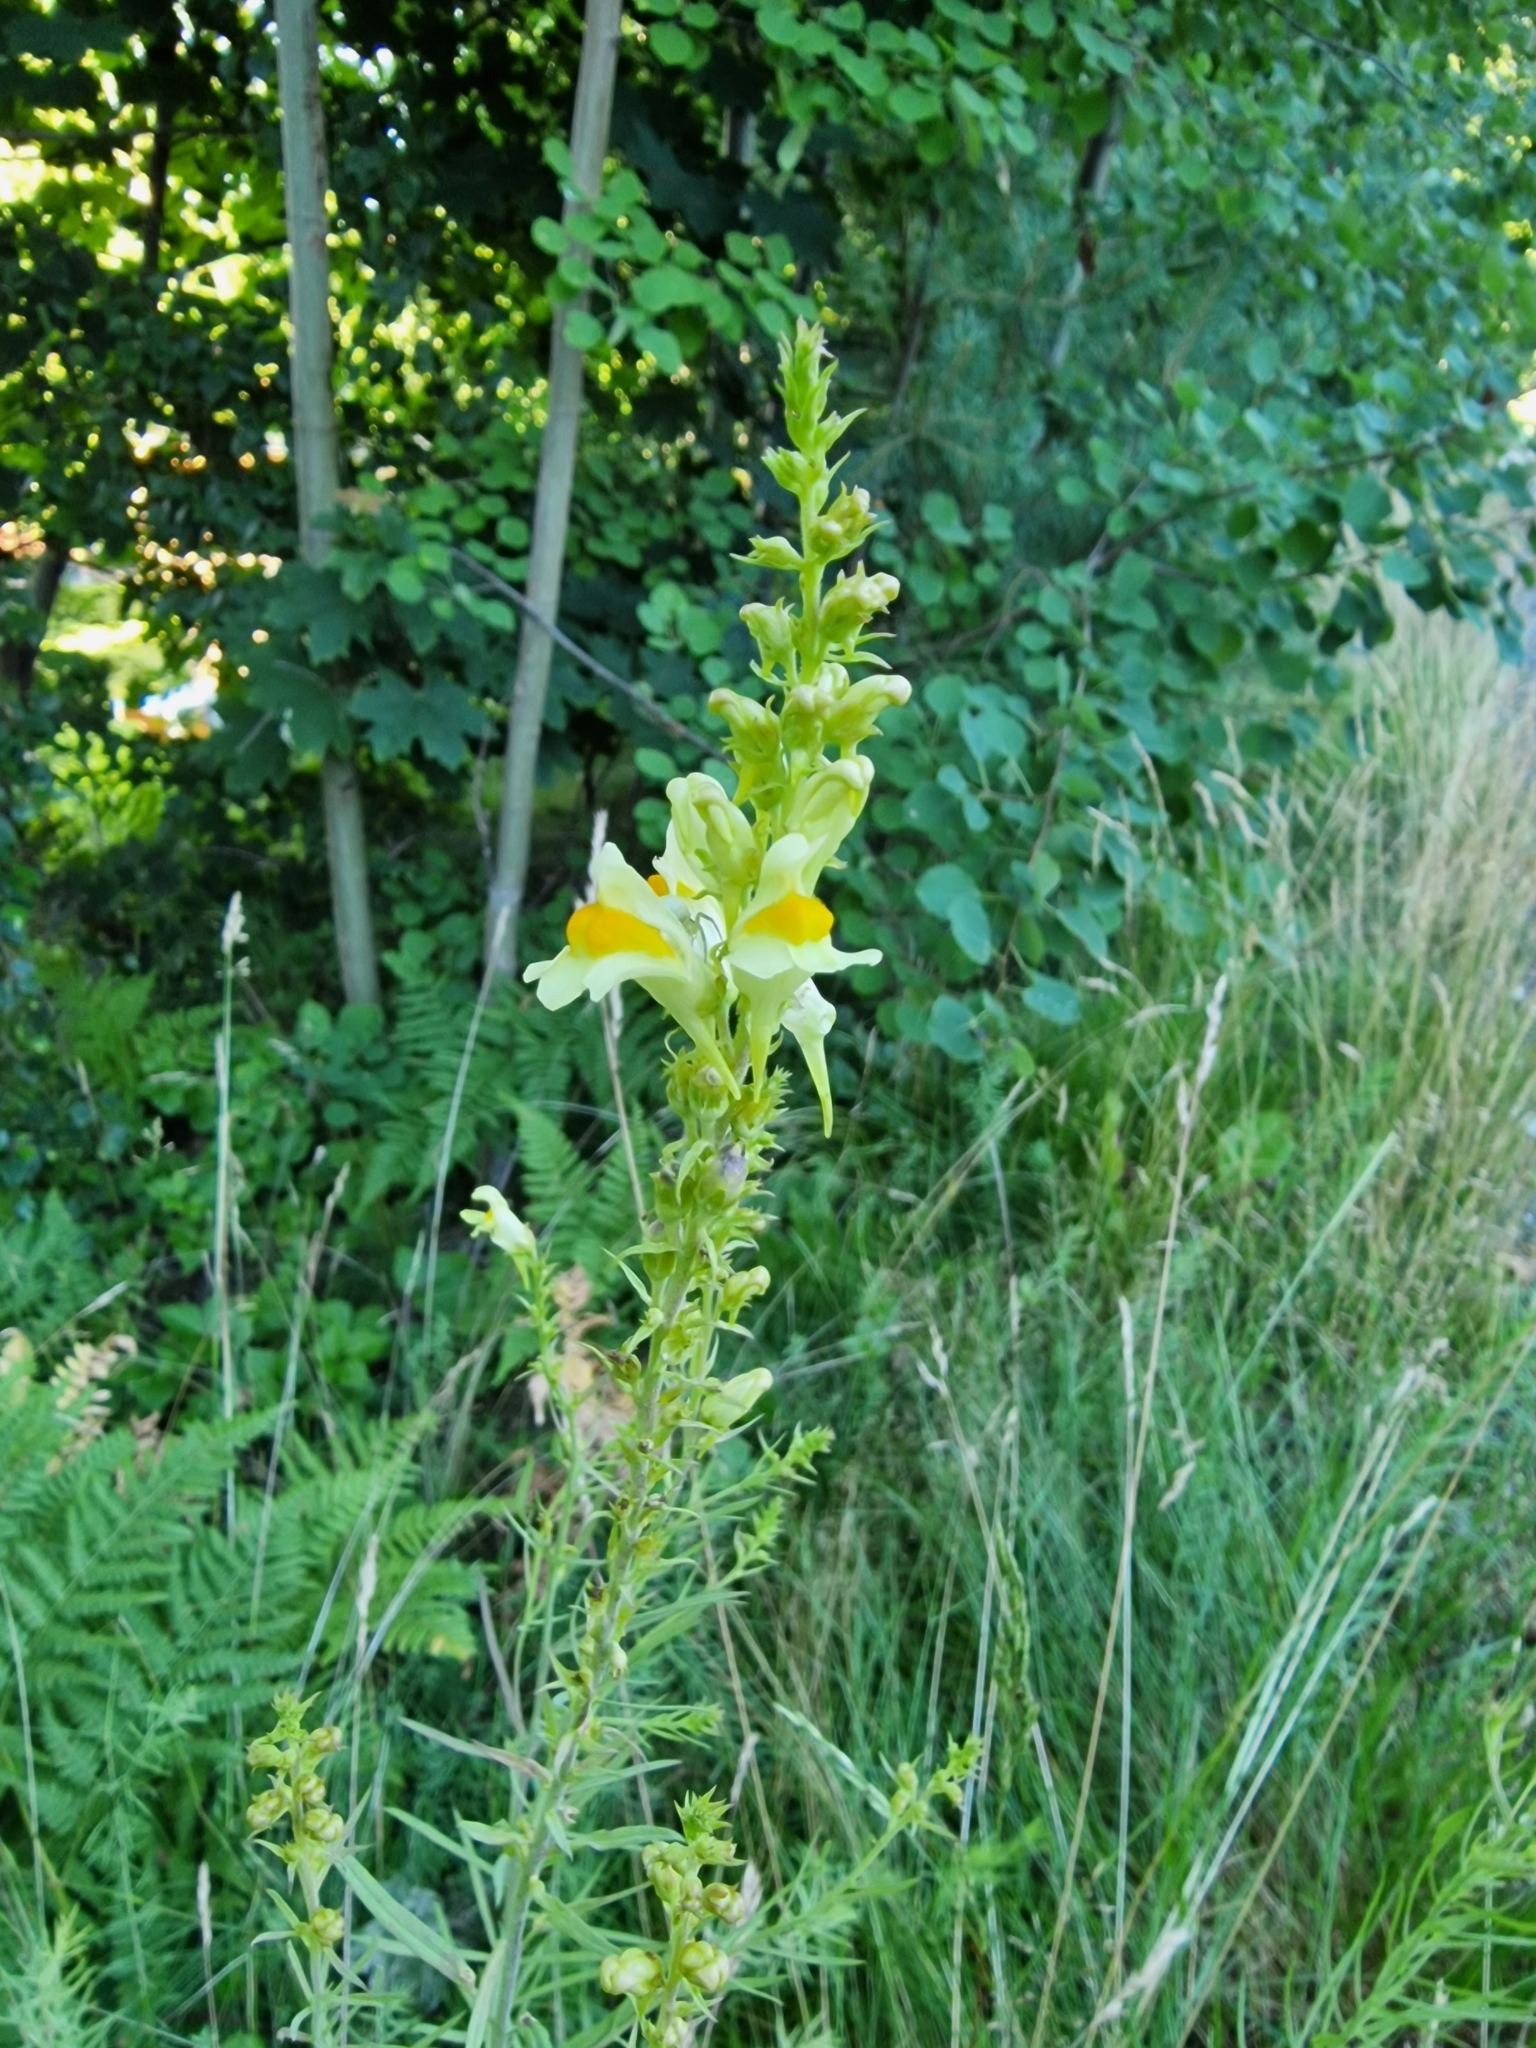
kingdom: Plantae
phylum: Tracheophyta
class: Magnoliopsida
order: Lamiales
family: Plantaginaceae
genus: Linaria
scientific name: Linaria vulgaris
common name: Butter and eggs
